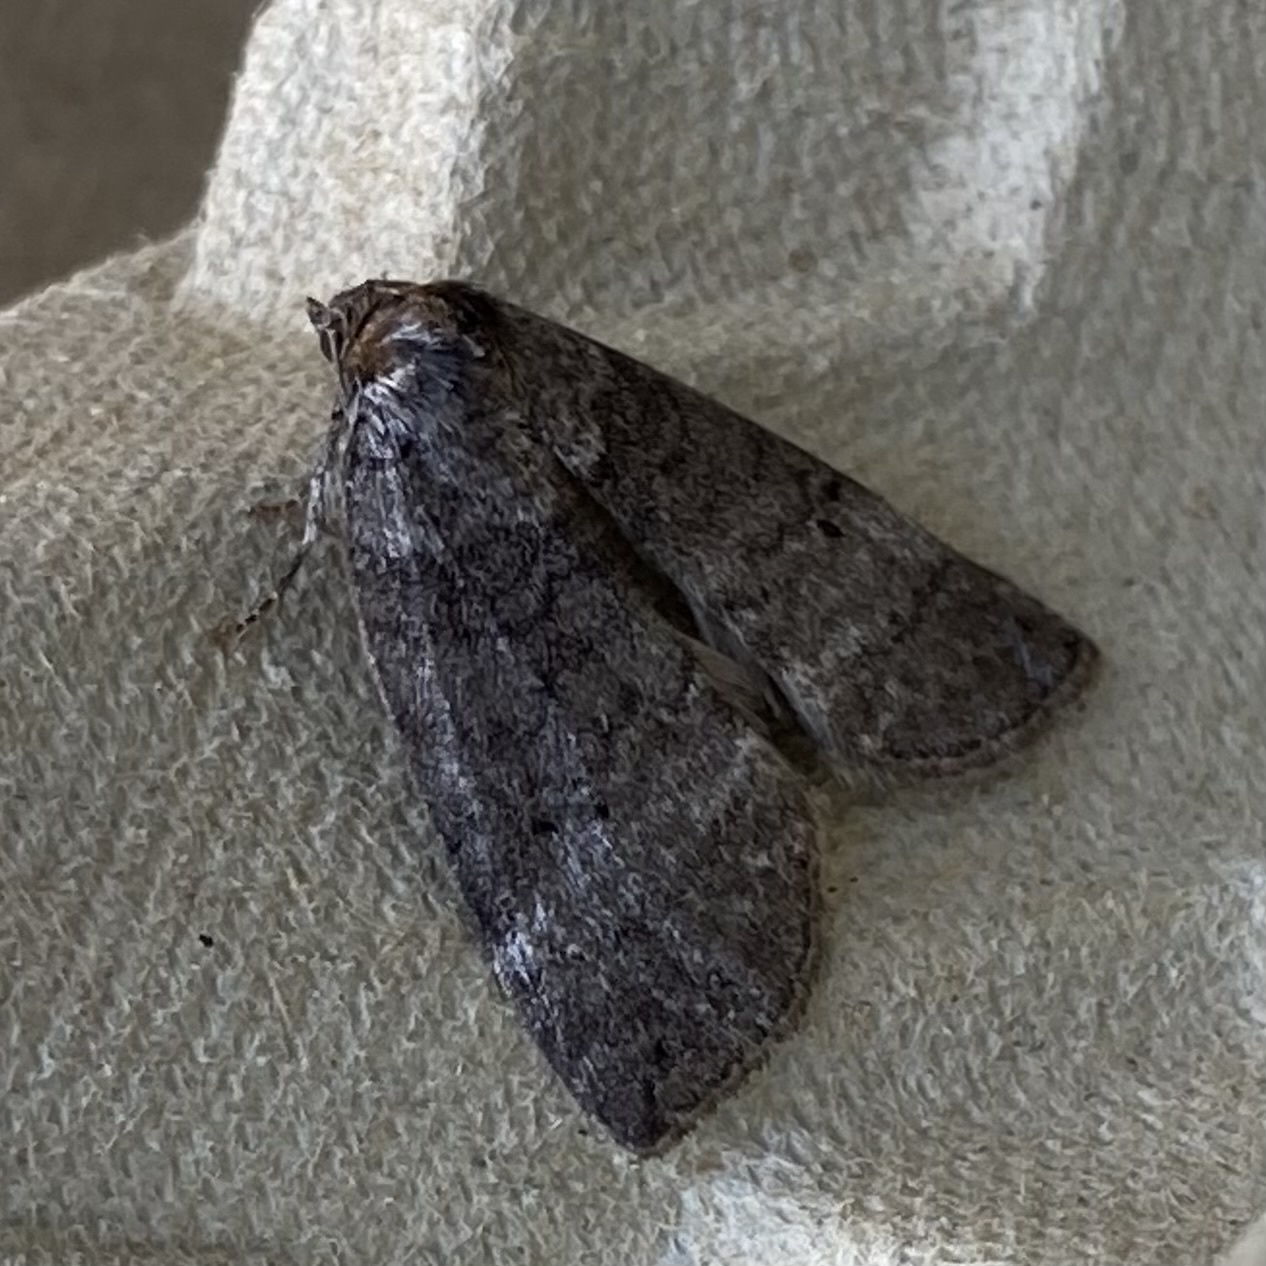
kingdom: Animalia
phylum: Arthropoda
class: Insecta
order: Lepidoptera
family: Drepanidae
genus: Ochropacha
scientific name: Ochropacha duplaris
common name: Common lutestring
